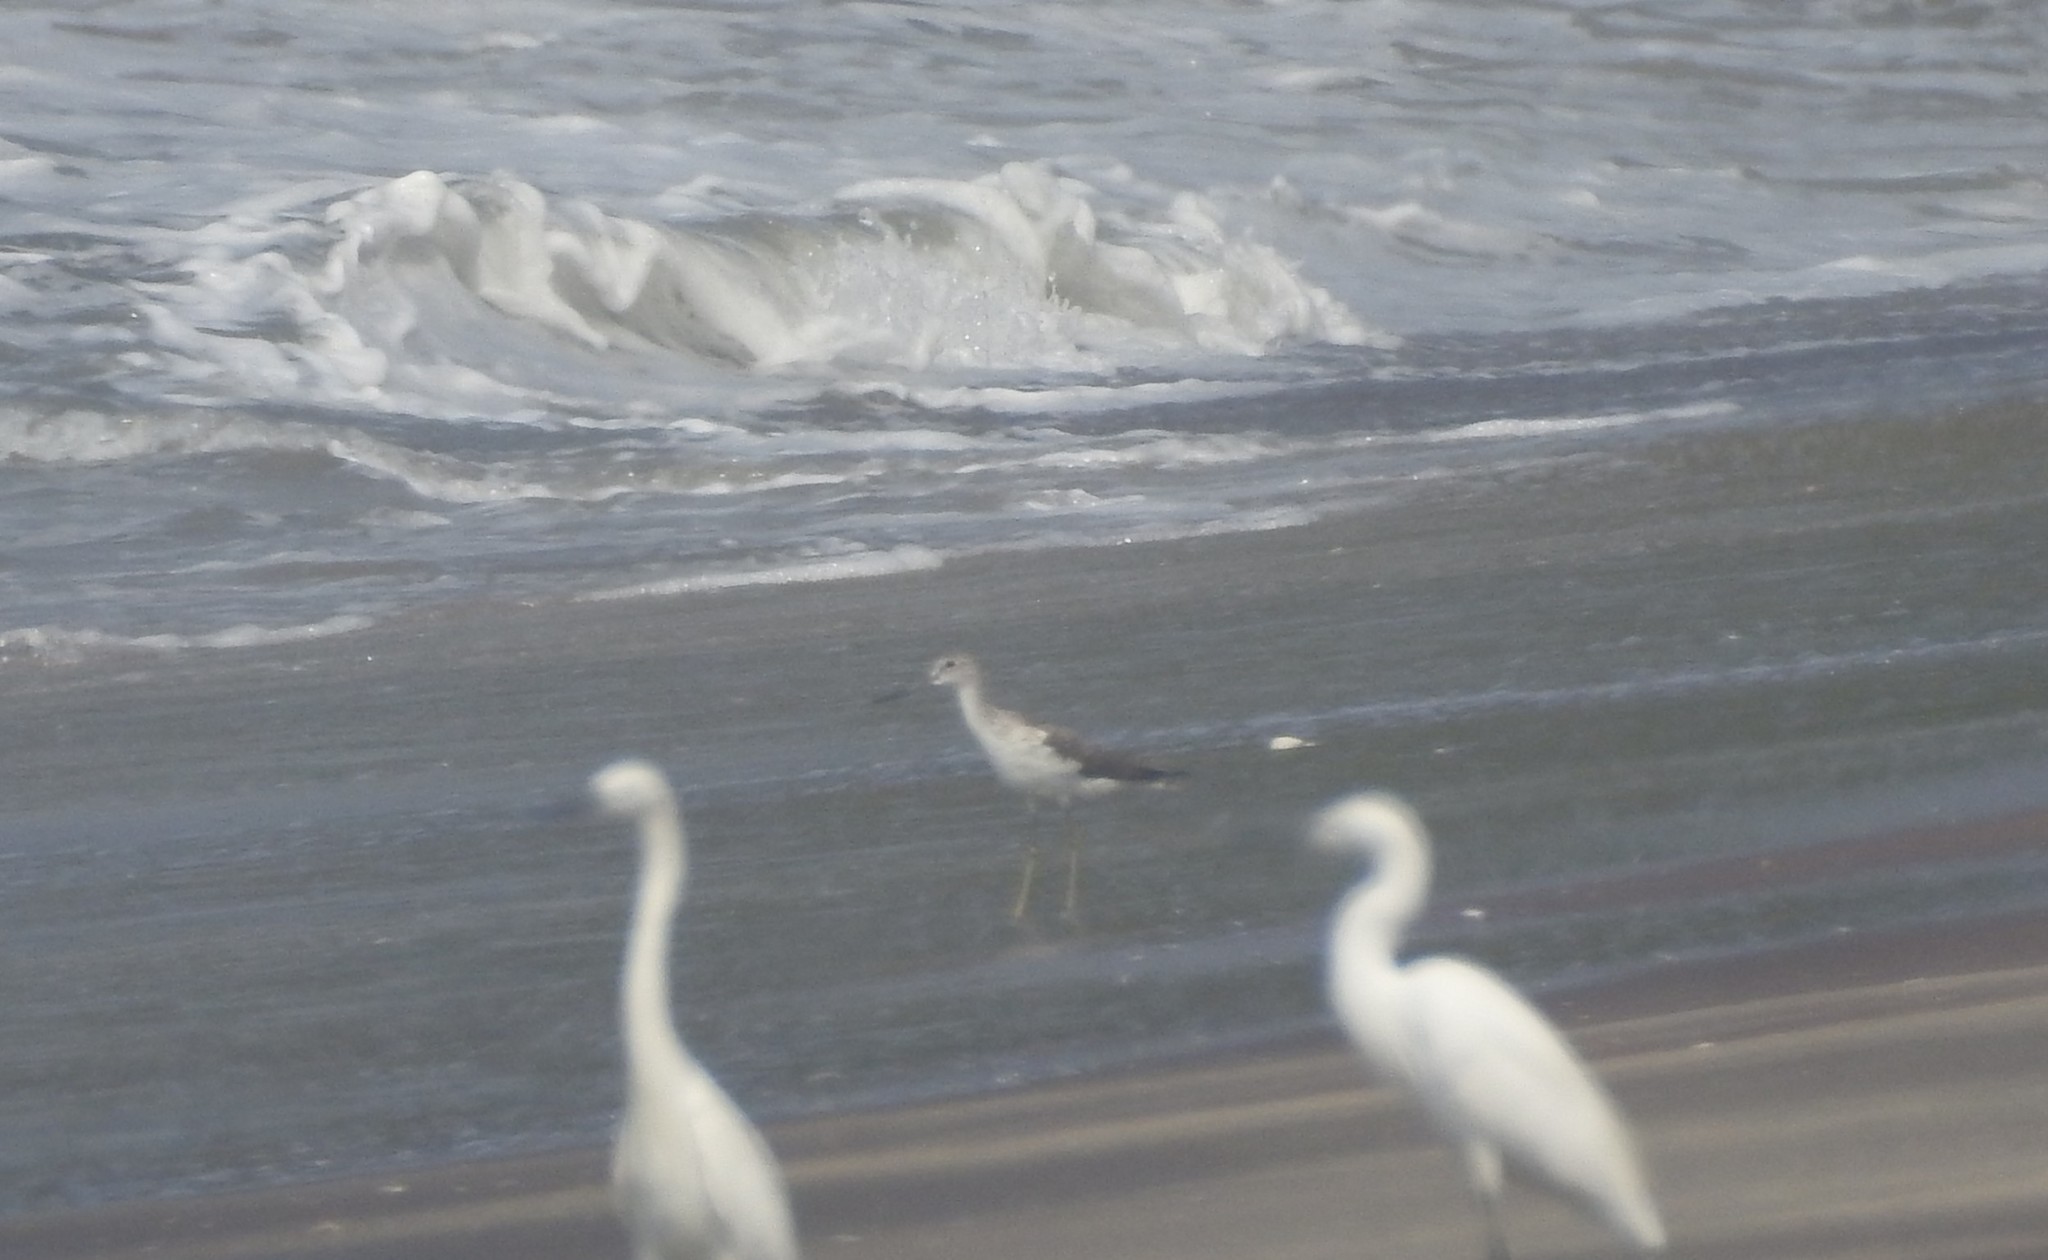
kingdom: Animalia
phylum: Chordata
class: Aves
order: Charadriiformes
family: Scolopacidae
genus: Tringa
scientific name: Tringa nebularia
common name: Common greenshank
